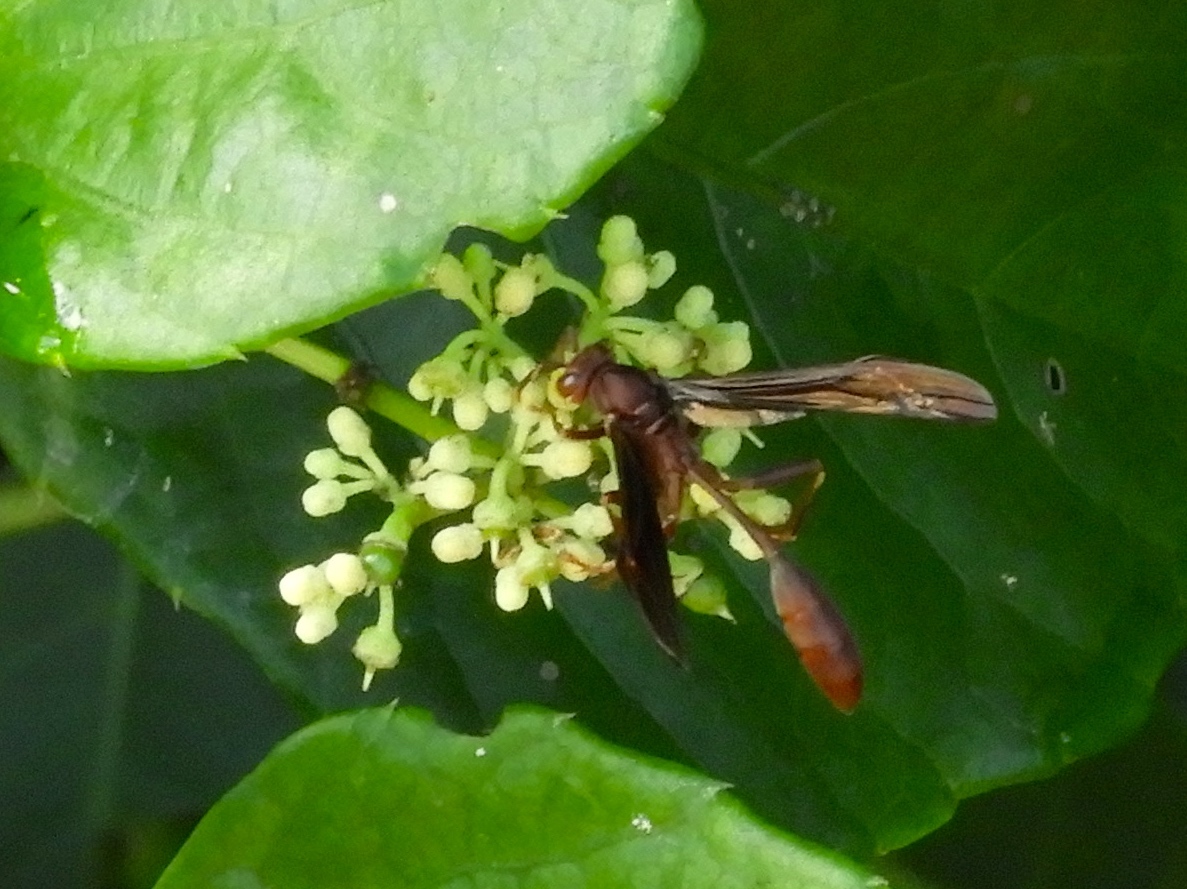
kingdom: Animalia
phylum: Arthropoda
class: Insecta
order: Hymenoptera
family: Vespidae
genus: Mischocyttarus
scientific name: Mischocyttarus melanarius
